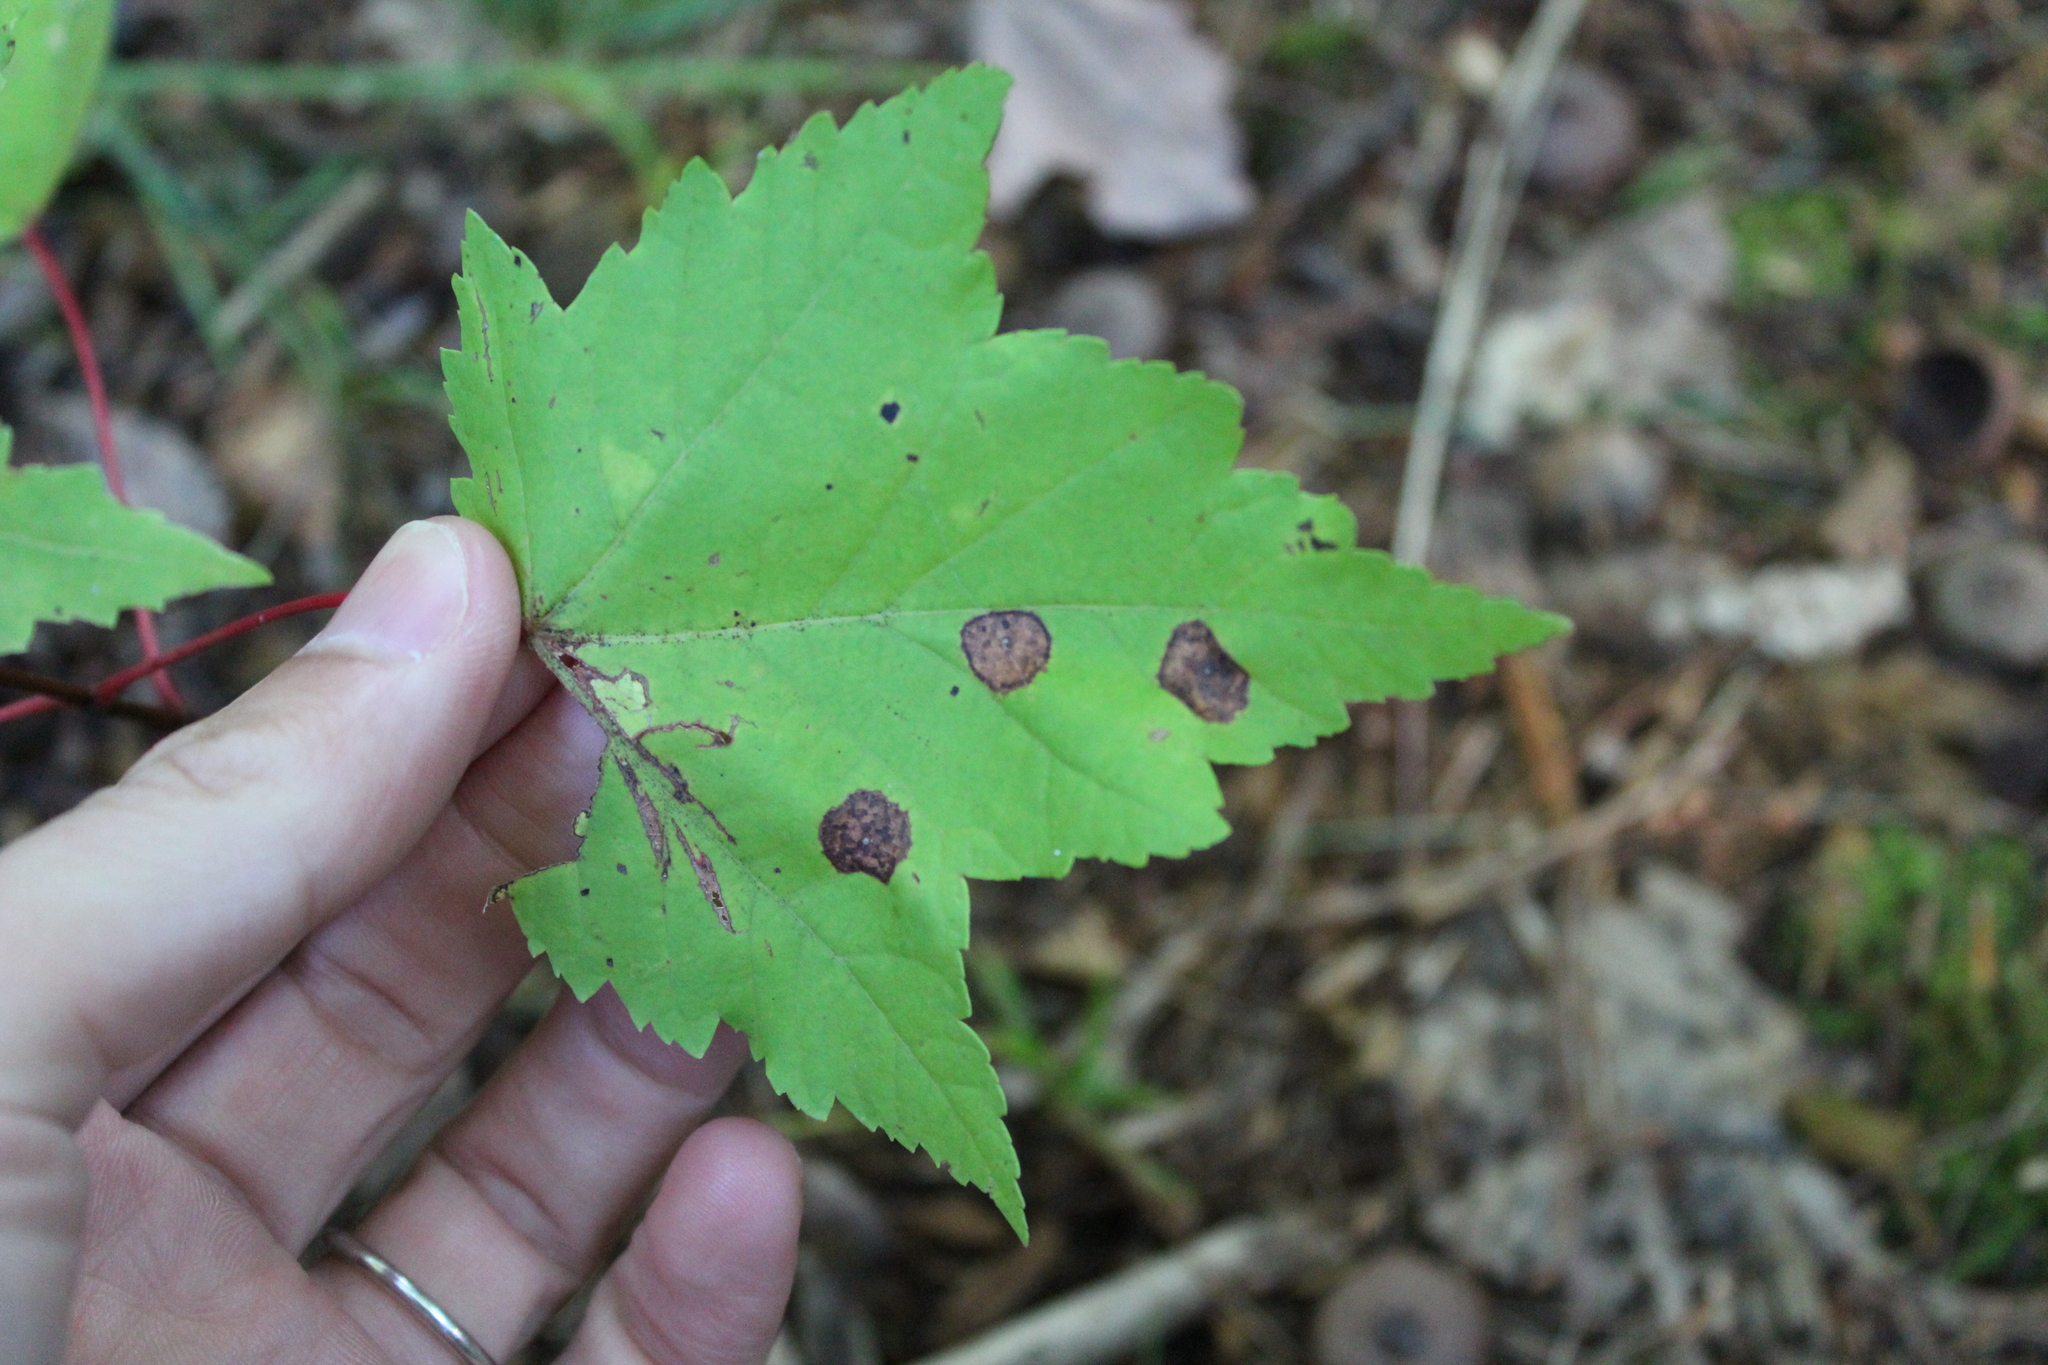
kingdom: Fungi
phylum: Ascomycota
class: Leotiomycetes
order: Rhytismatales
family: Rhytismataceae
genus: Rhytisma
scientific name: Rhytisma acerinum
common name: European tar spot
